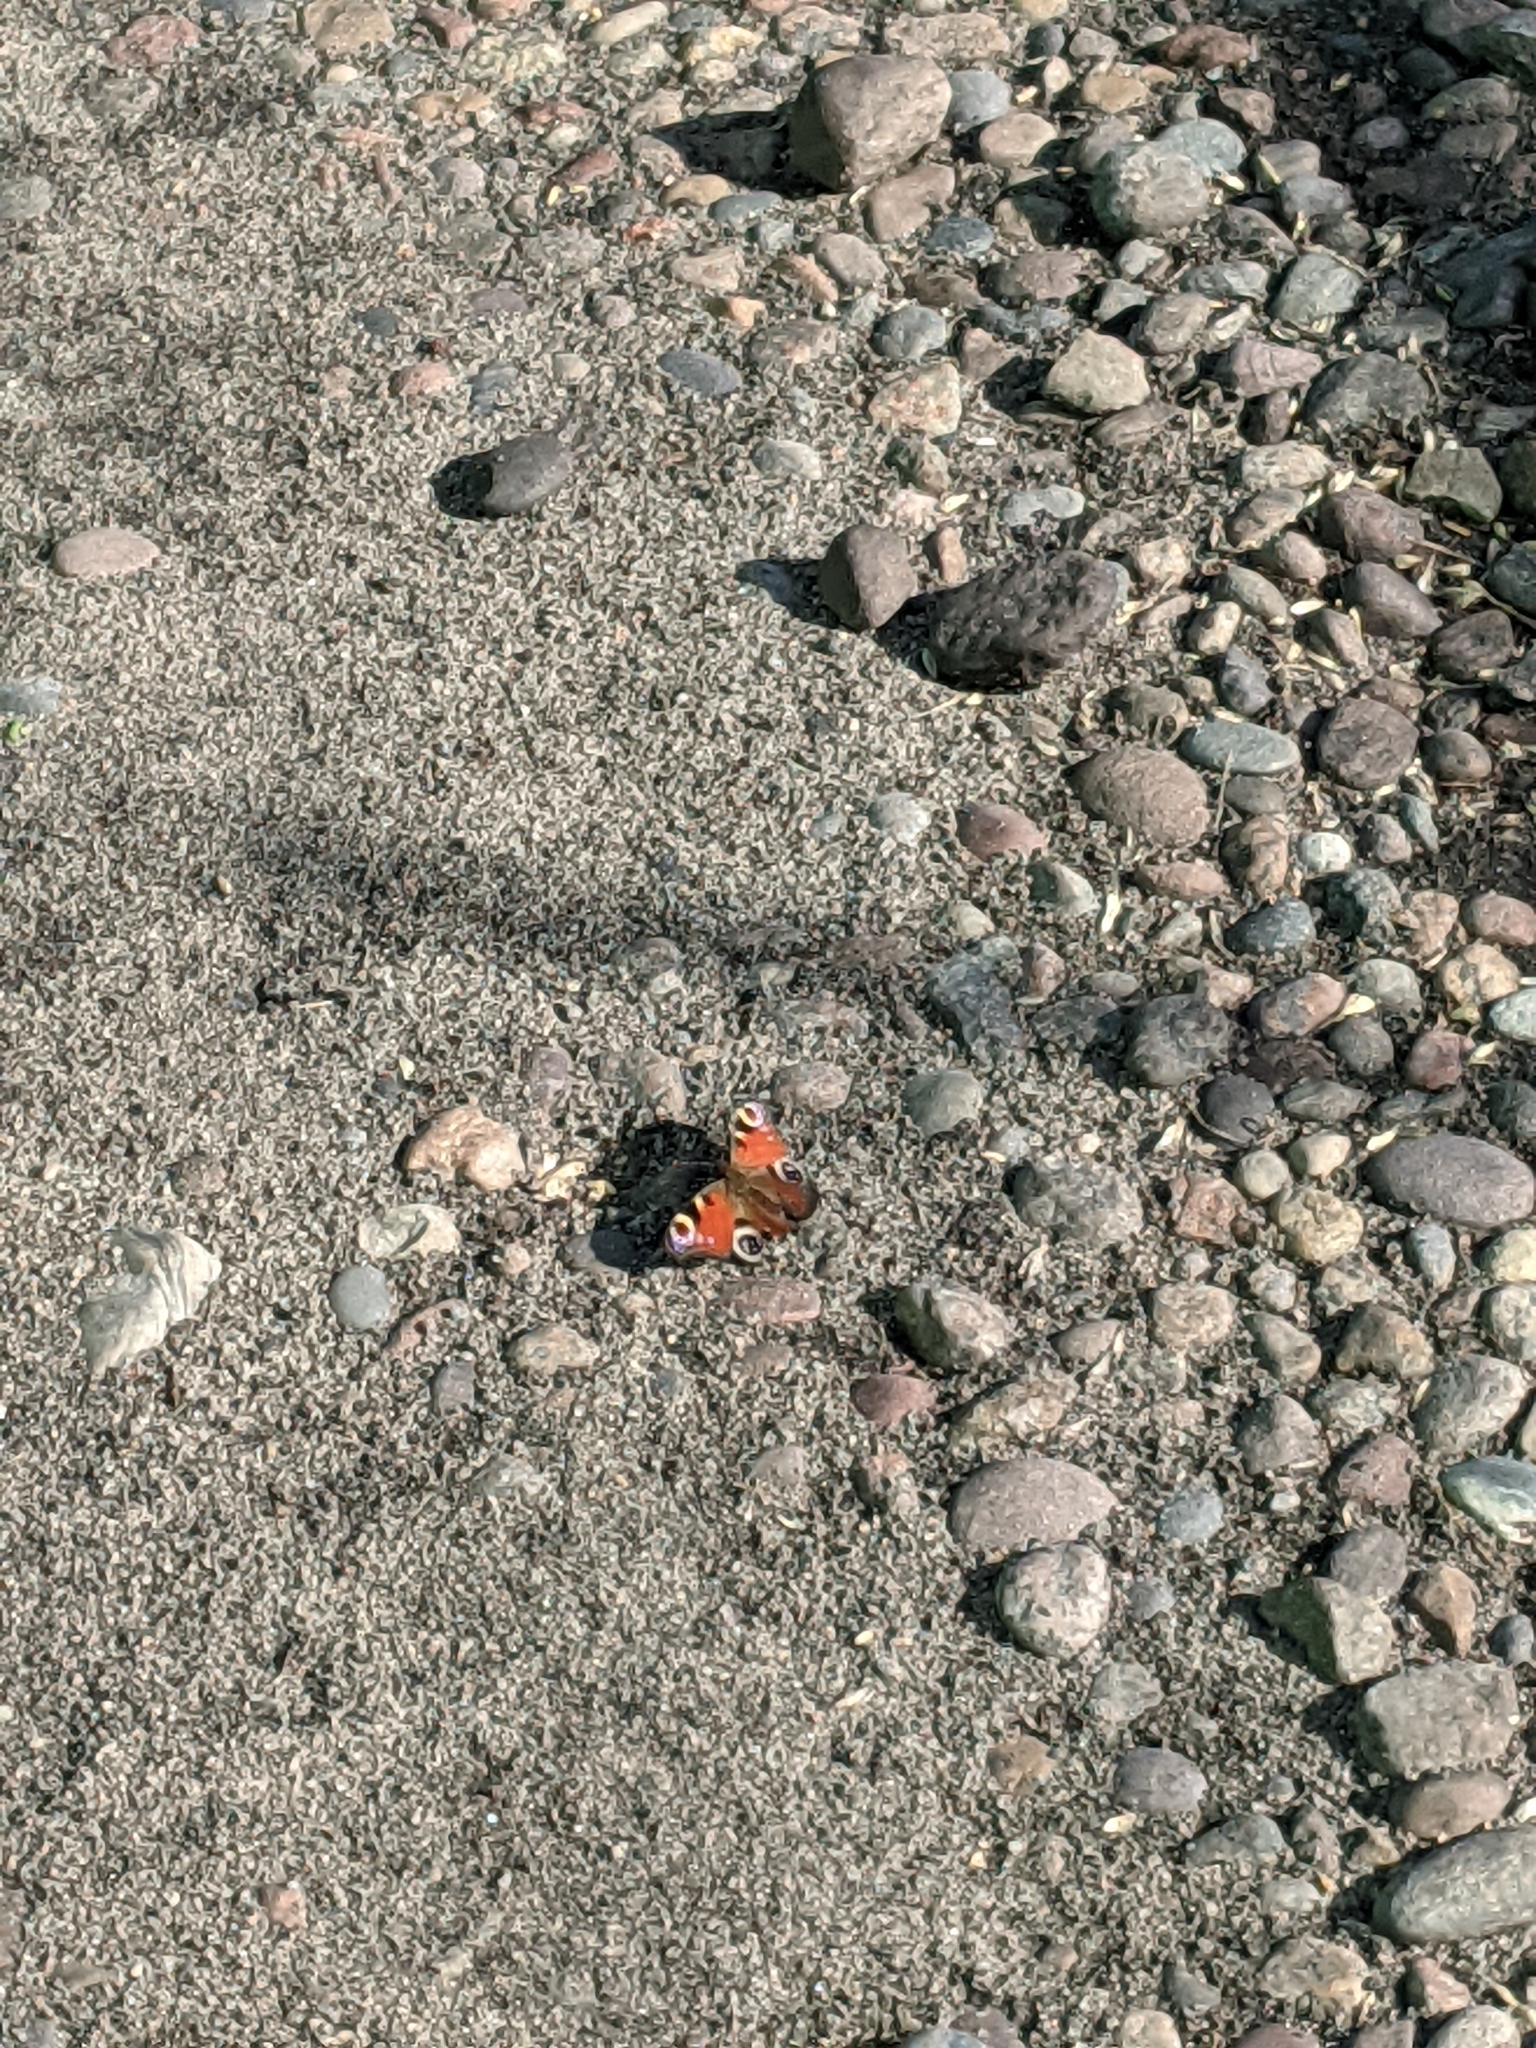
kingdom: Animalia
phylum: Arthropoda
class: Insecta
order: Lepidoptera
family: Nymphalidae
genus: Aglais
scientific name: Aglais io
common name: Peacock
